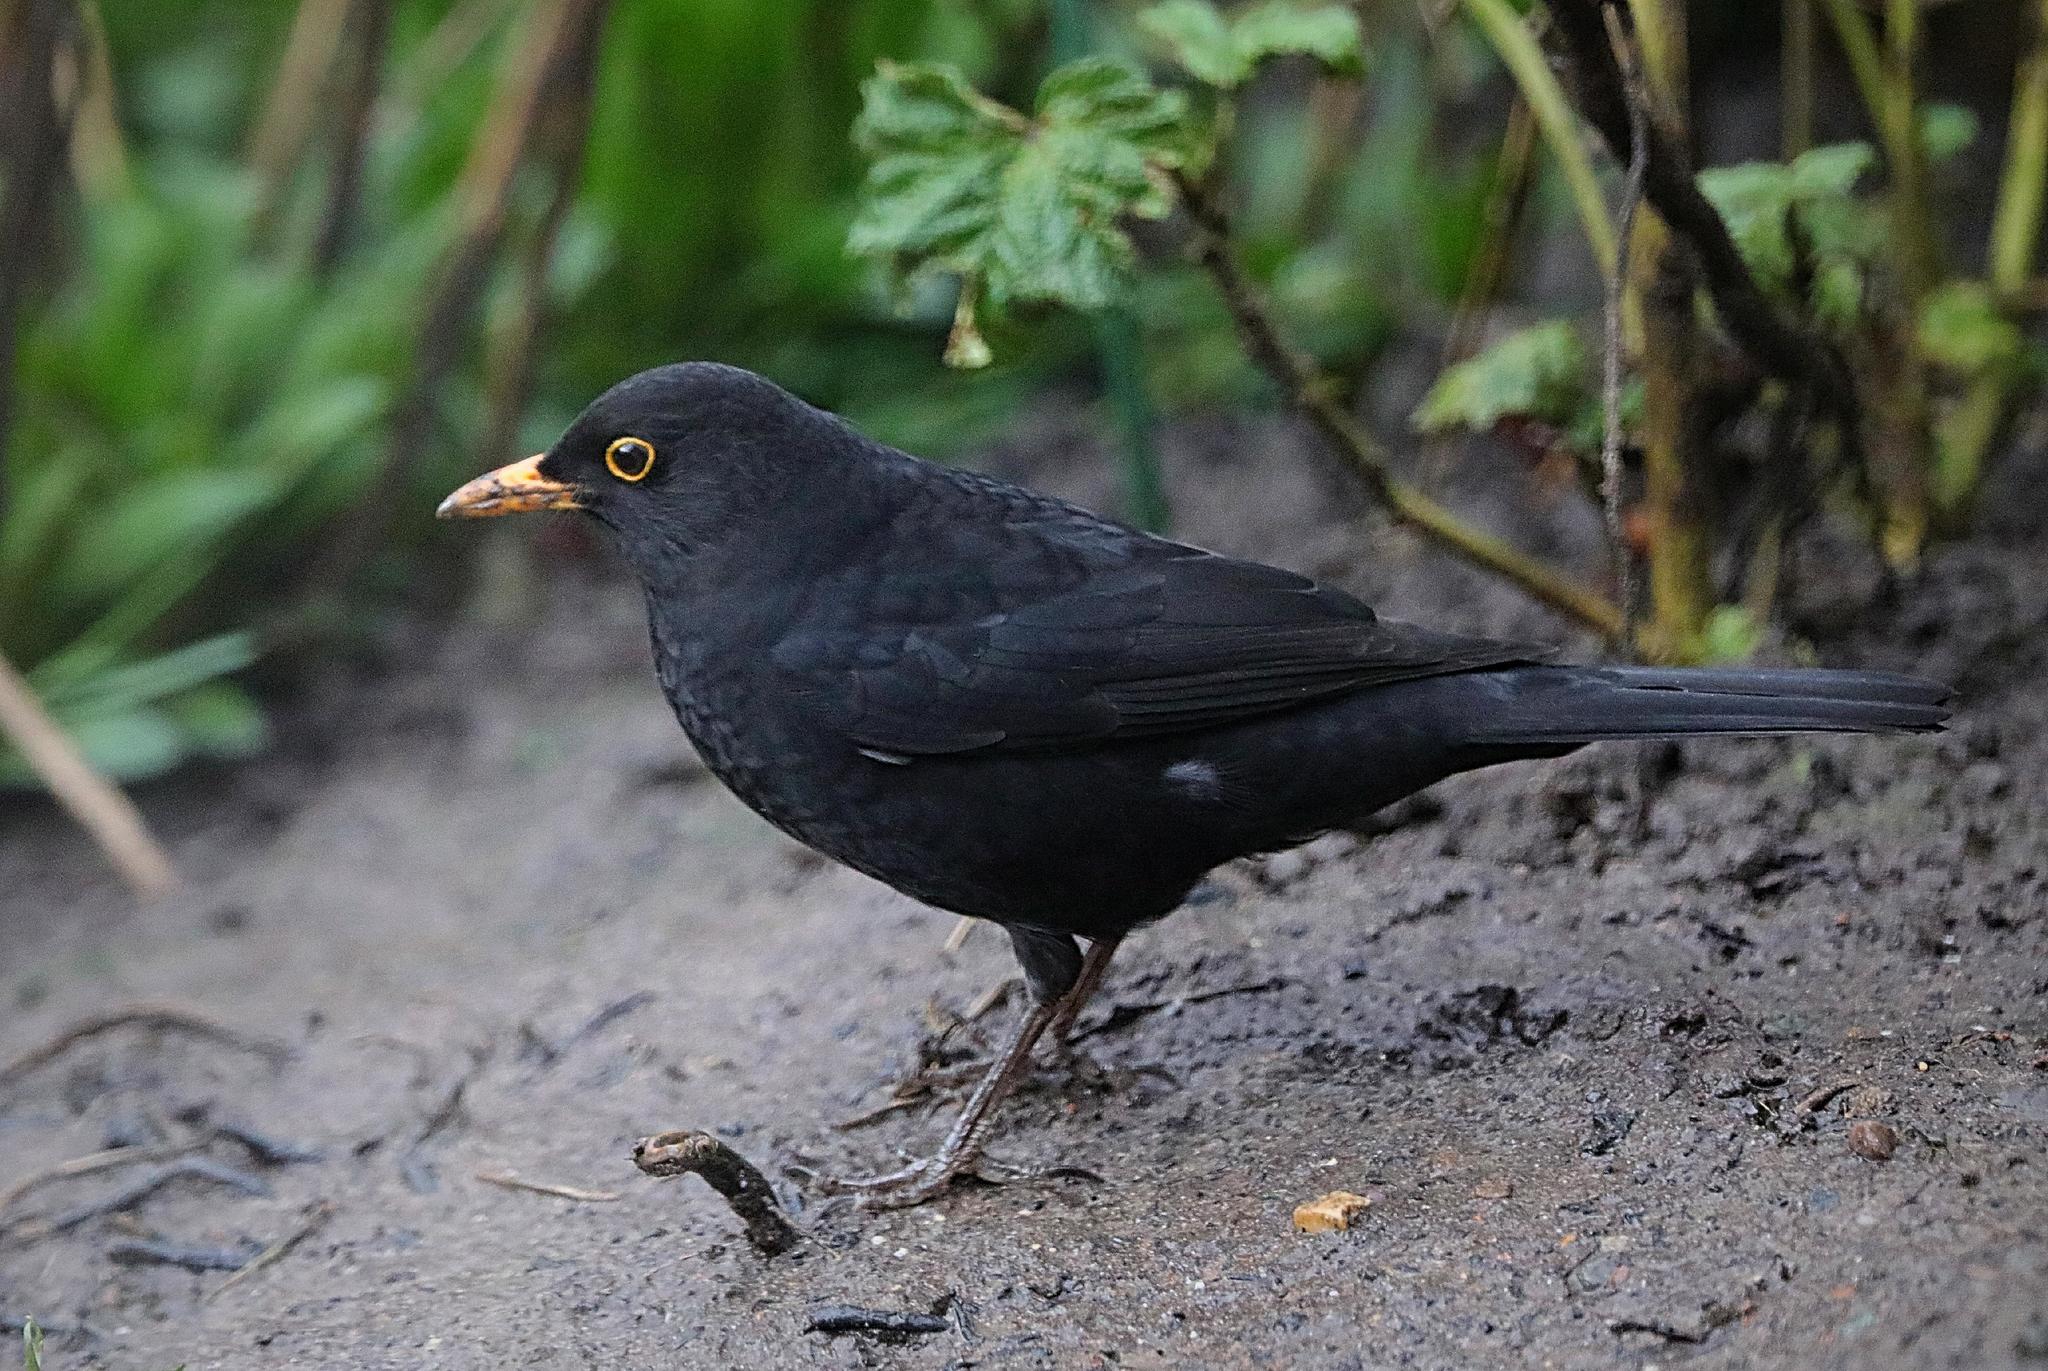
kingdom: Animalia
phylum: Chordata
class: Aves
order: Passeriformes
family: Turdidae
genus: Turdus
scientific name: Turdus merula
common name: Common blackbird
